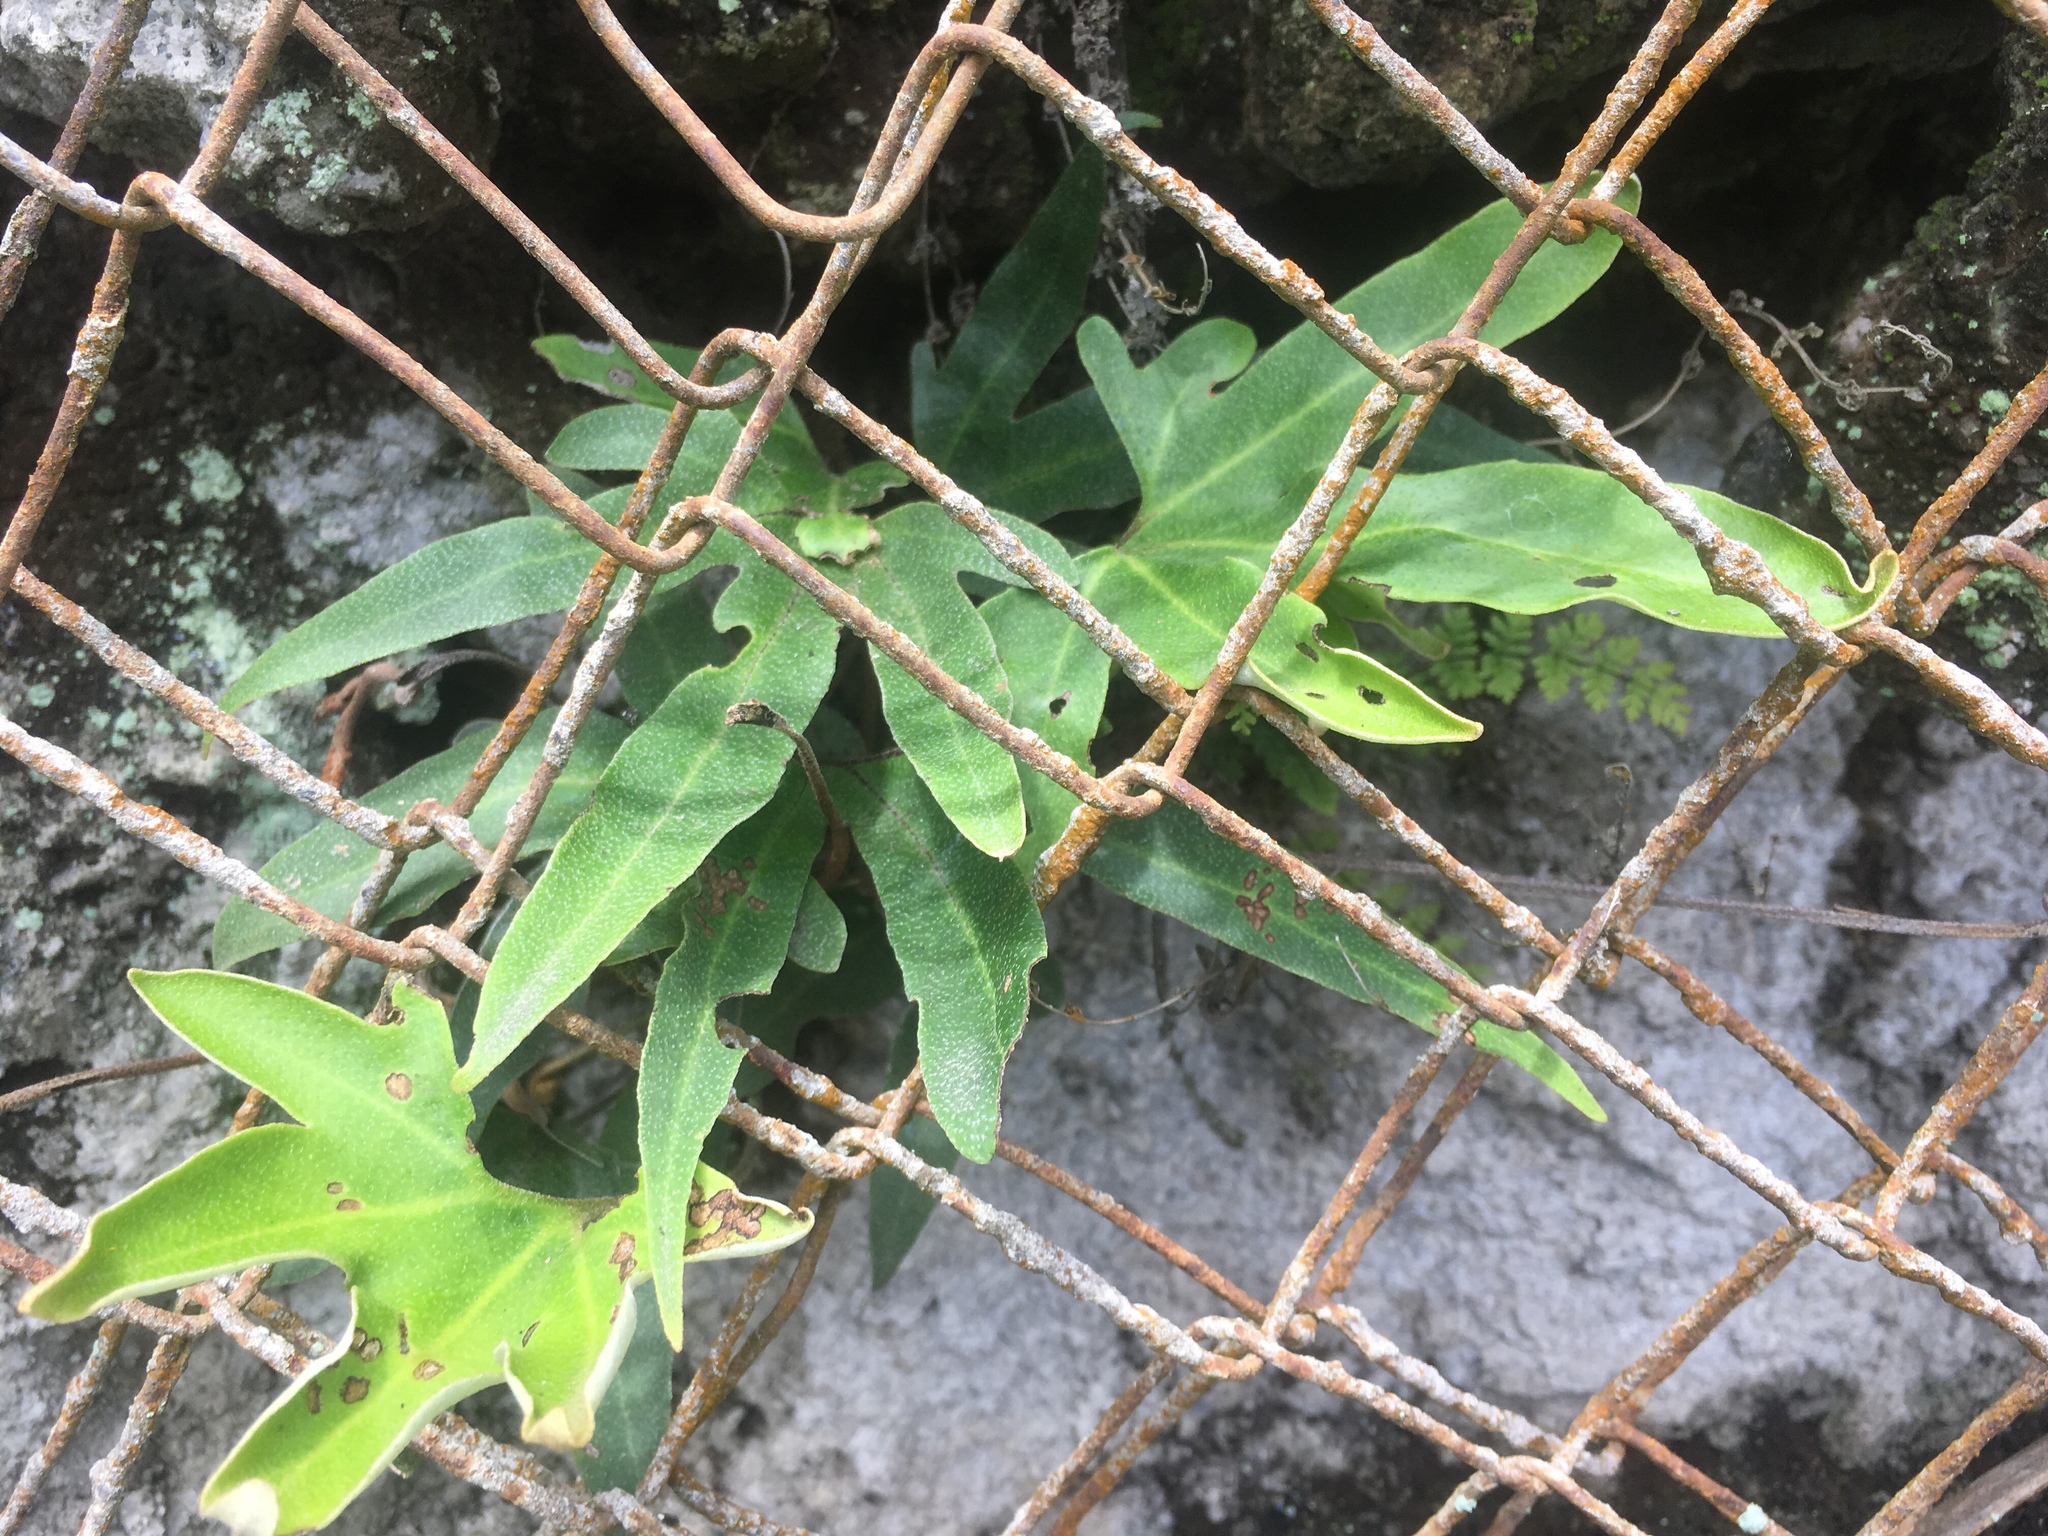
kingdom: Plantae
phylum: Tracheophyta
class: Polypodiopsida
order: Polypodiales
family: Polypodiaceae
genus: Pyrrosia
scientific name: Pyrrosia polydactyla
